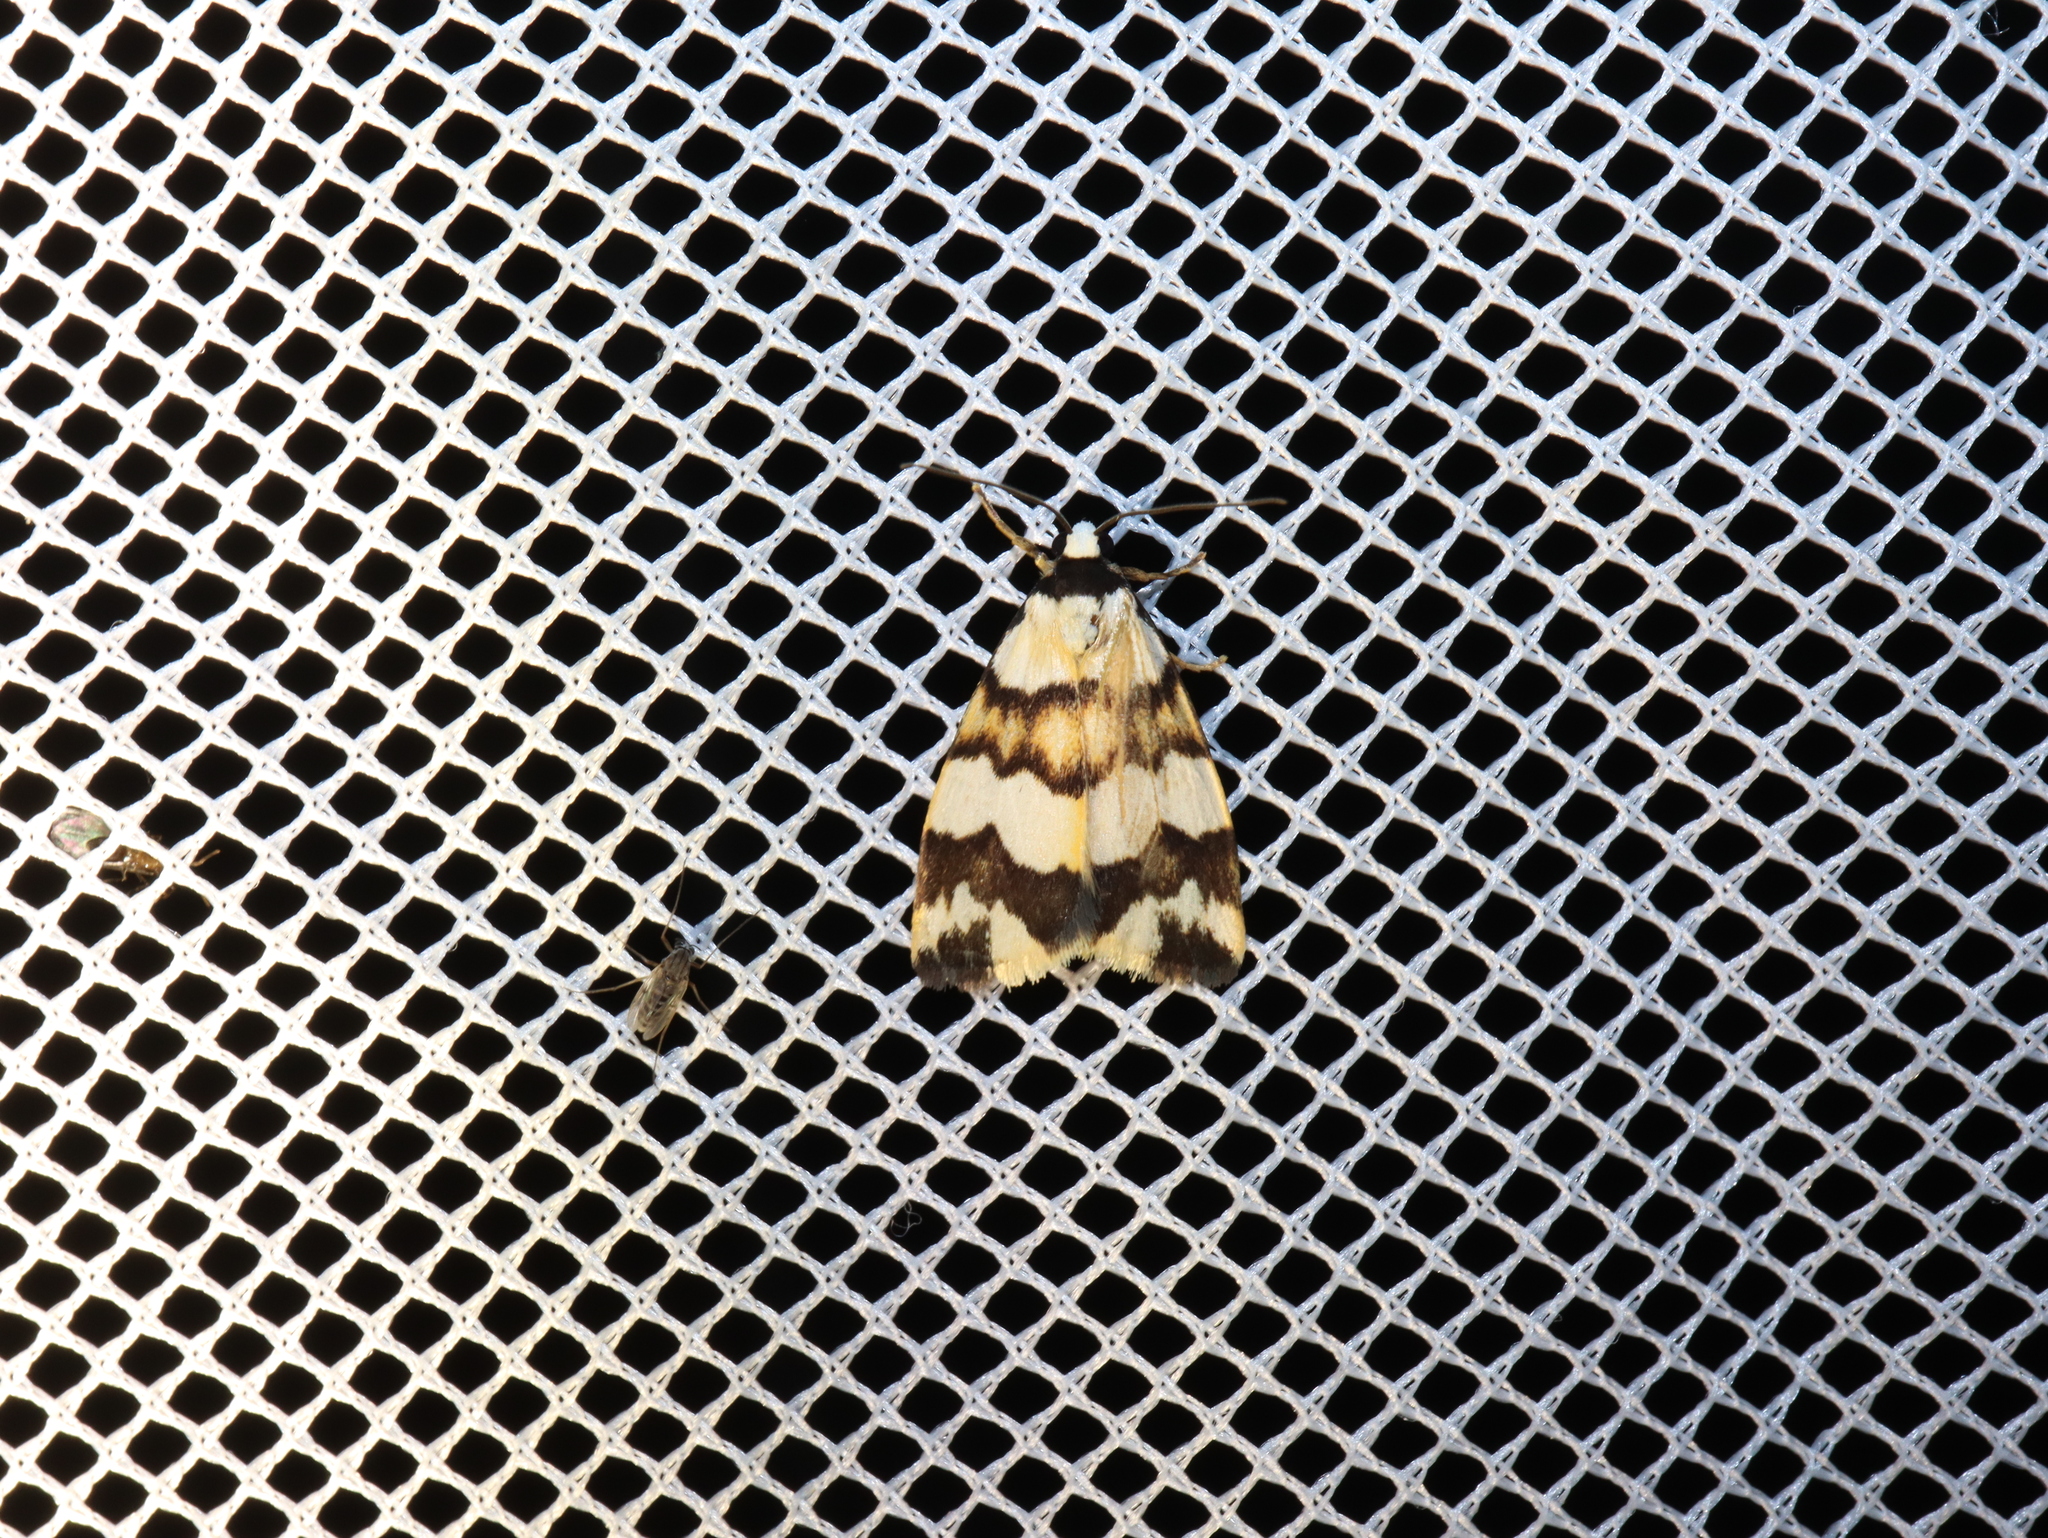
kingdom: Animalia
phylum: Arthropoda
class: Insecta
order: Lepidoptera
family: Erebidae
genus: Termessa
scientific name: Termessa gratiosa
